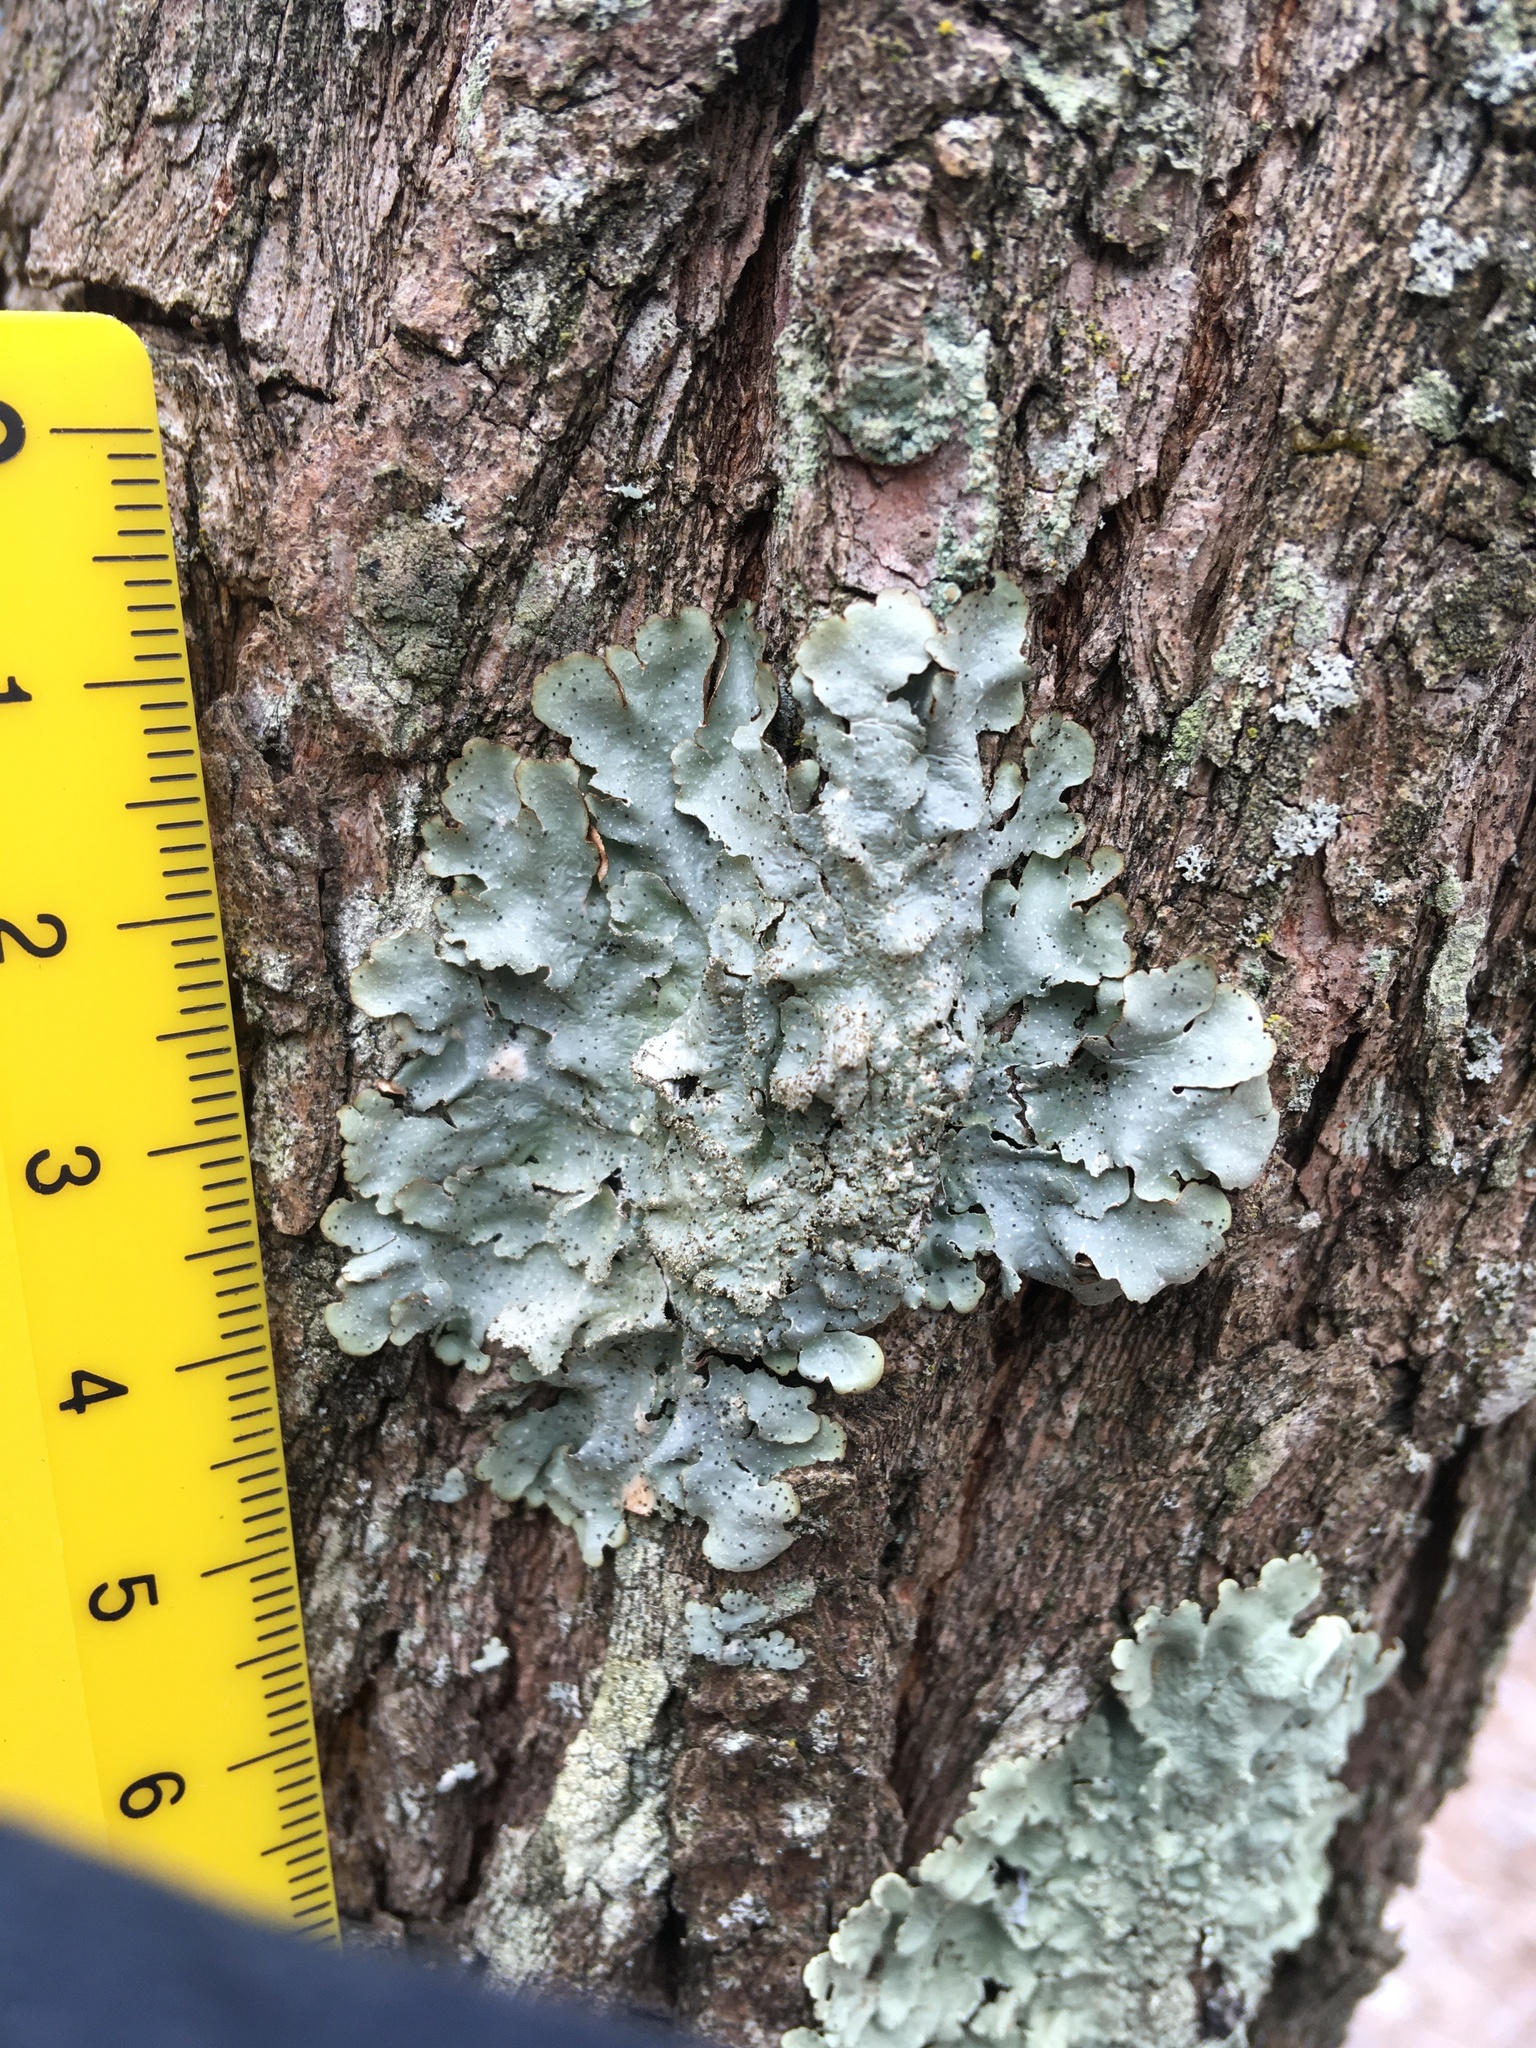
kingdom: Fungi
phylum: Ascomycota
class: Lecanoromycetes
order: Lecanorales
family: Parmeliaceae
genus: Punctelia
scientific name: Punctelia rudecta
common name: Rough speckled shield lichen
